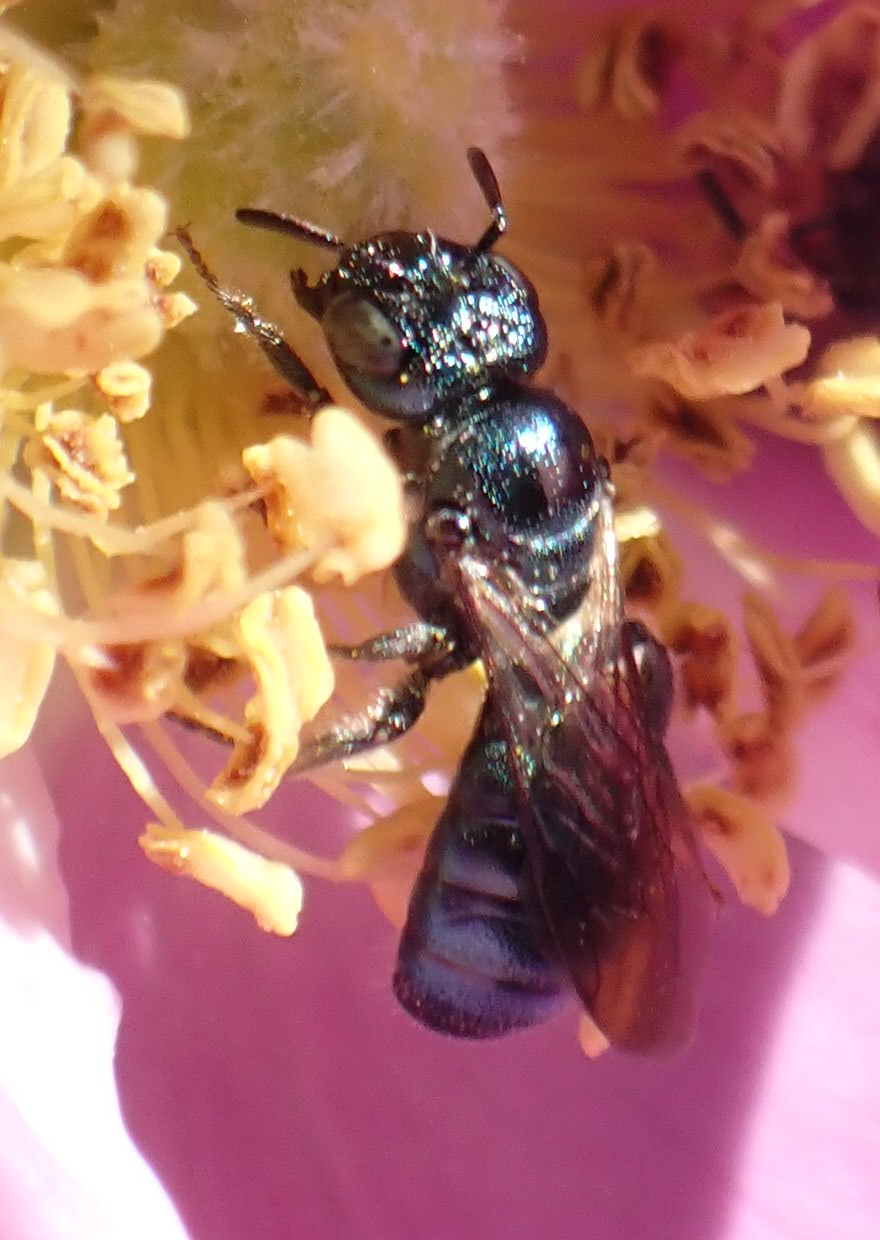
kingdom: Animalia
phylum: Arthropoda
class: Insecta
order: Hymenoptera
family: Apidae
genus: Ceratina
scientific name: Ceratina calcarata
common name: Spurred carpenter bee
